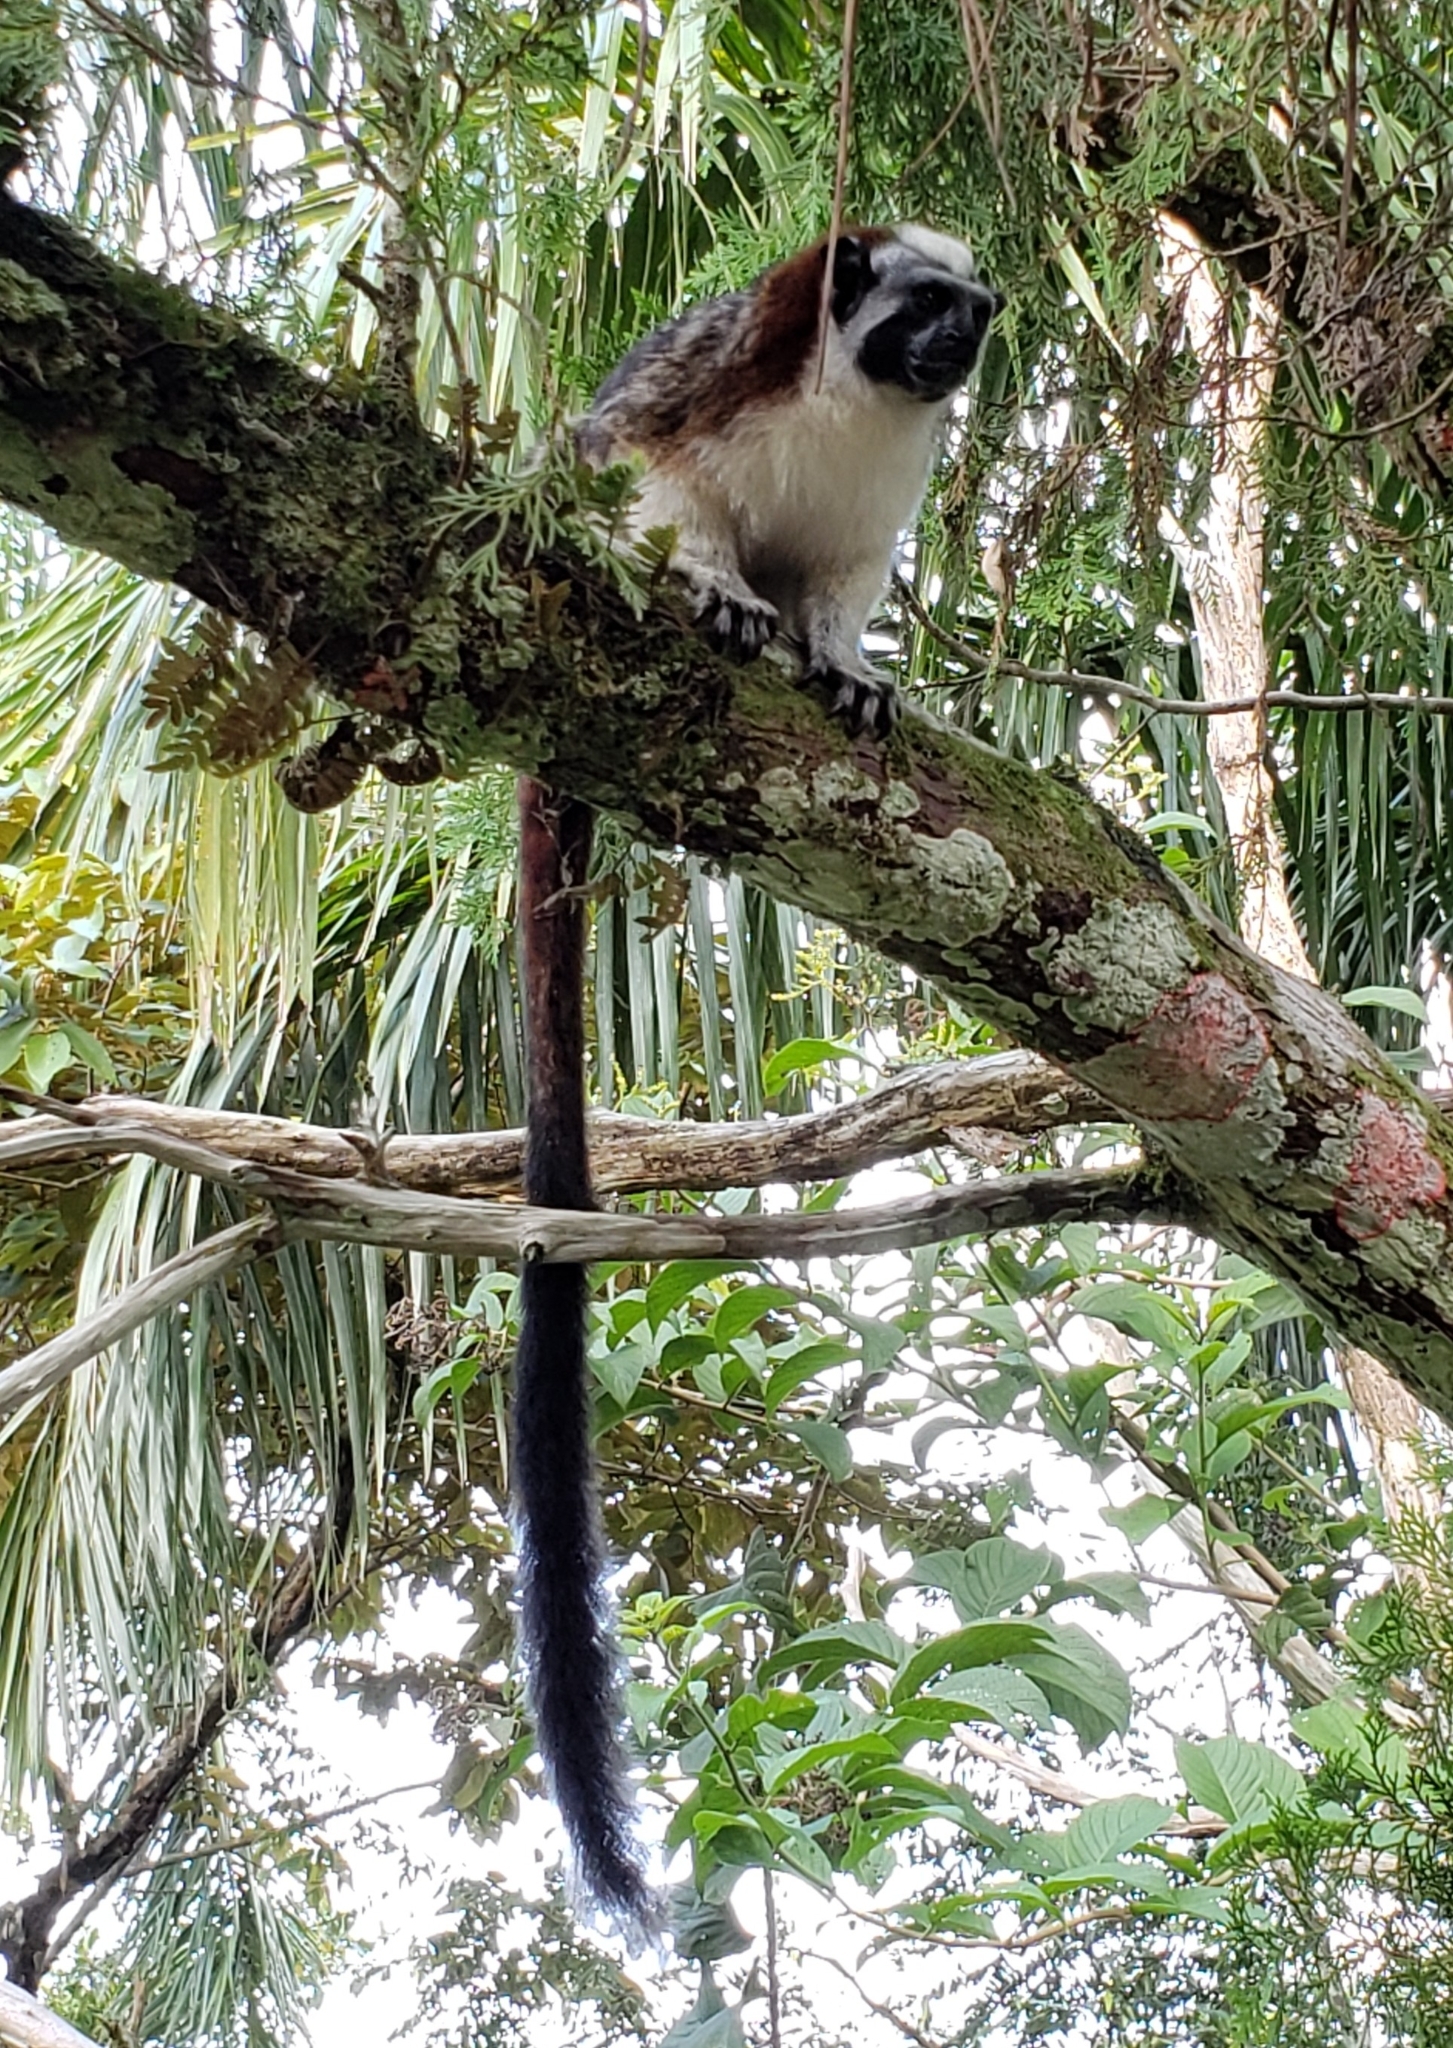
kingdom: Animalia
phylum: Chordata
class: Mammalia
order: Primates
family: Callitrichidae
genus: Saguinus
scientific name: Saguinus geoffroyi
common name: Geoffroy s tamarin
